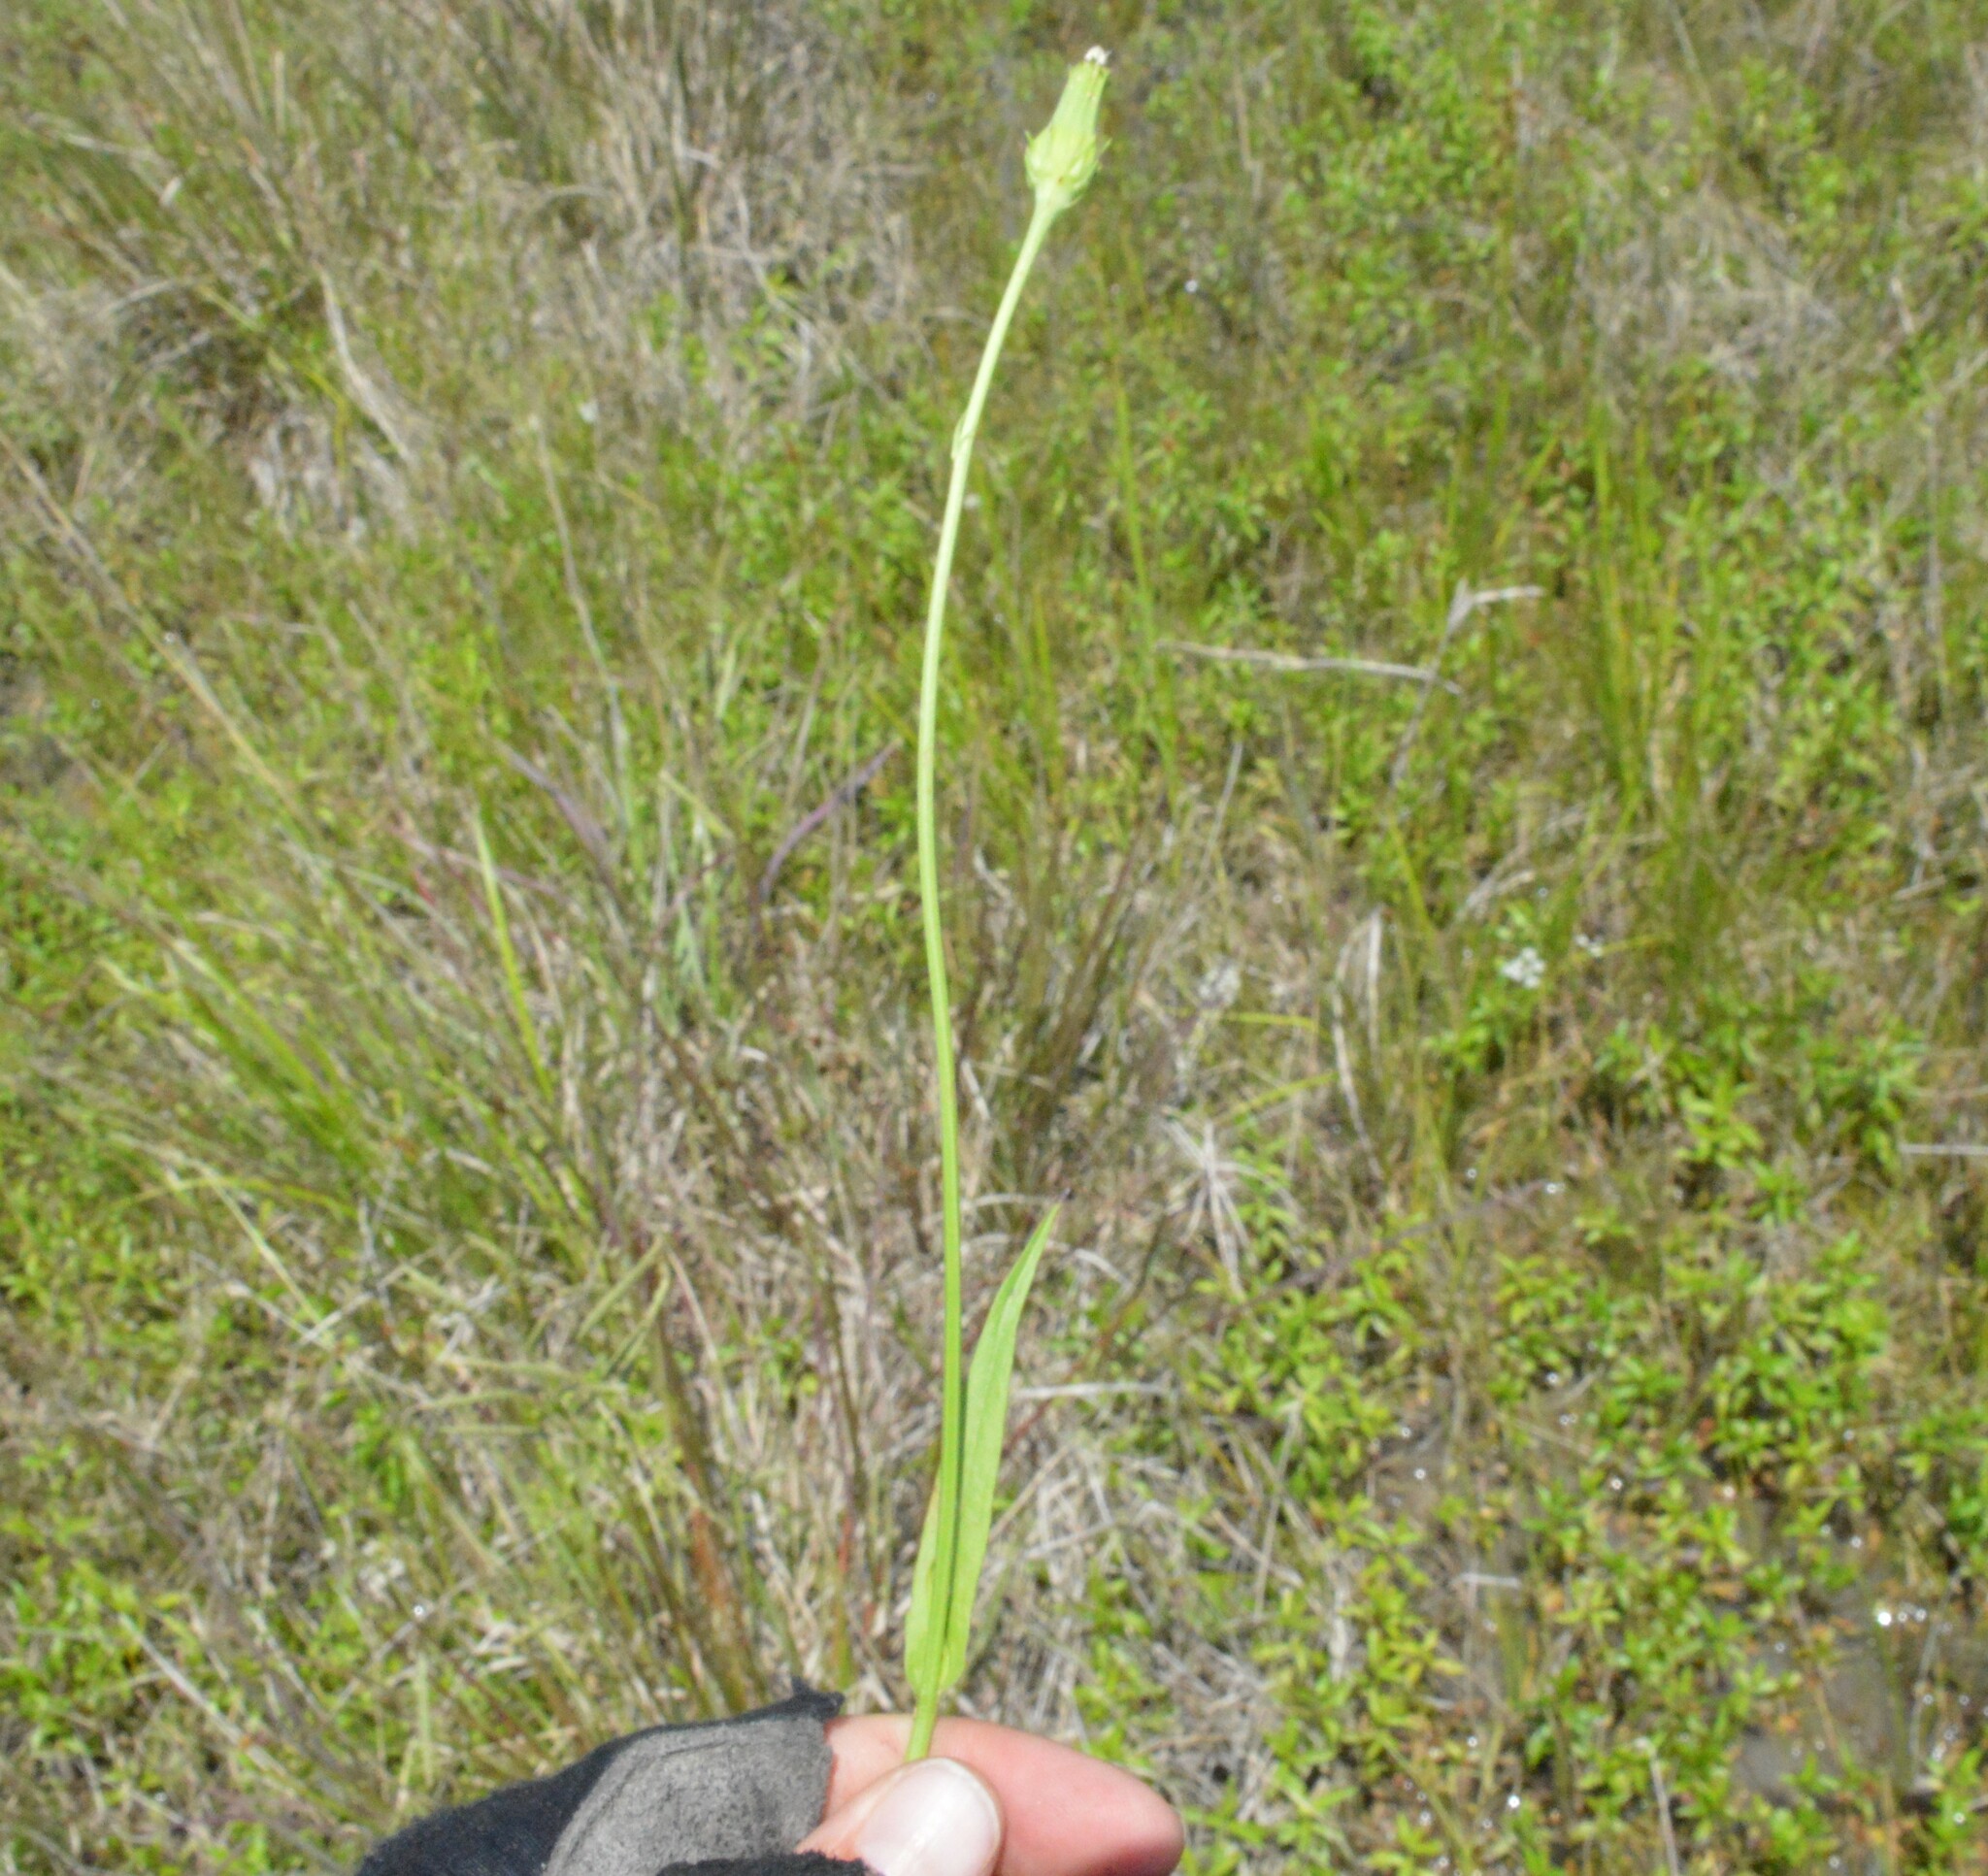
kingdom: Plantae
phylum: Tracheophyta
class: Magnoliopsida
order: Asterales
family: Asteraceae
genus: Pyrrhopappus
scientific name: Pyrrhopappus carolinianus
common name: Carolina desert-chicory
